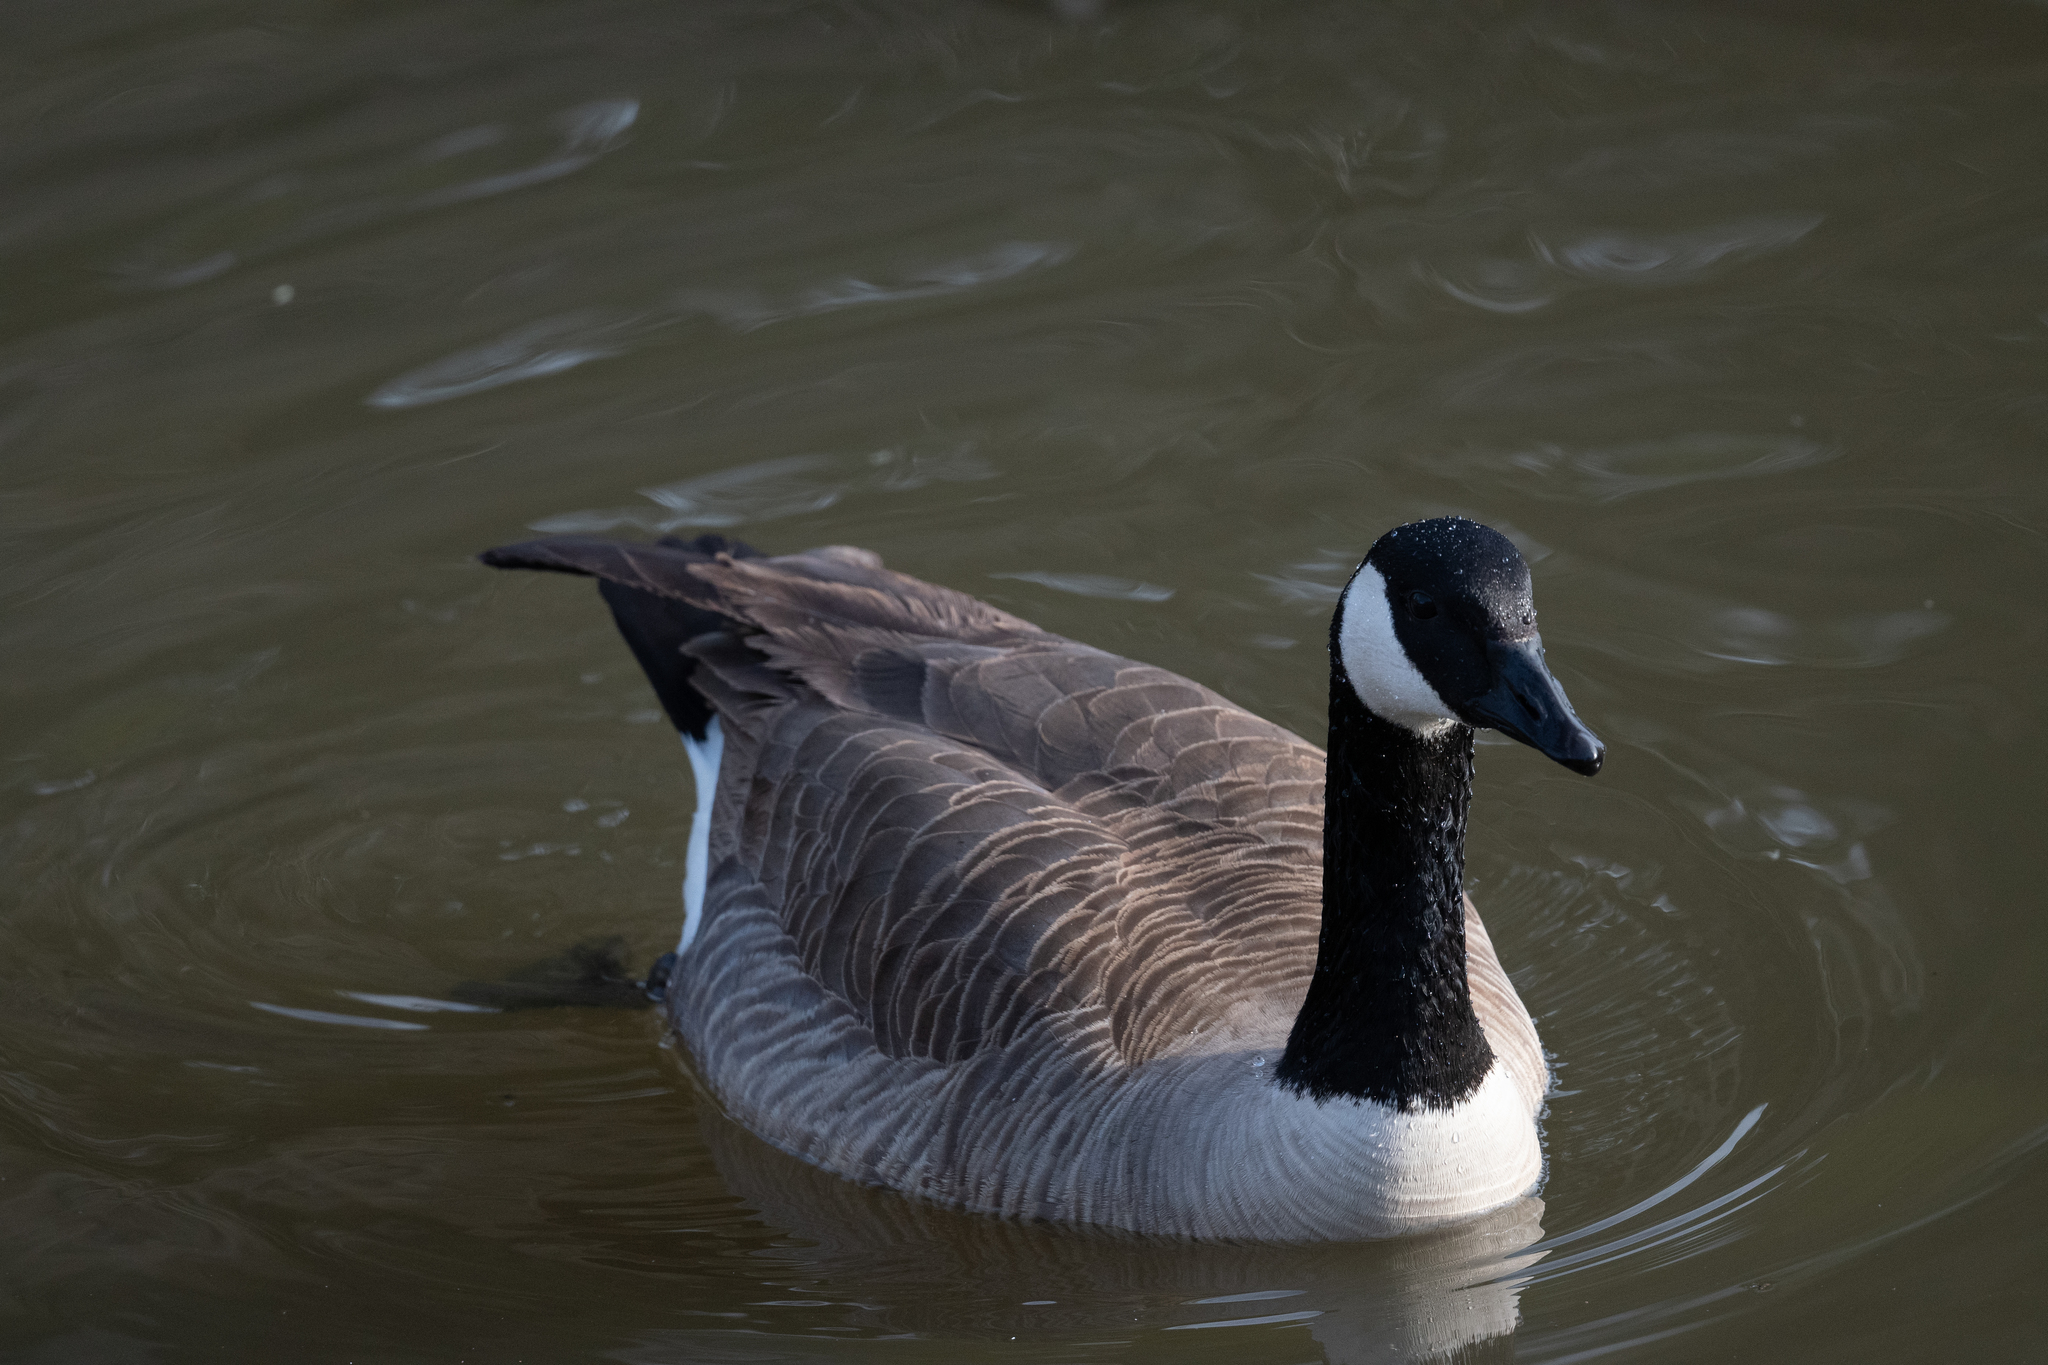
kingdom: Animalia
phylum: Chordata
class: Aves
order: Anseriformes
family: Anatidae
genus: Branta
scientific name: Branta canadensis
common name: Canada goose
